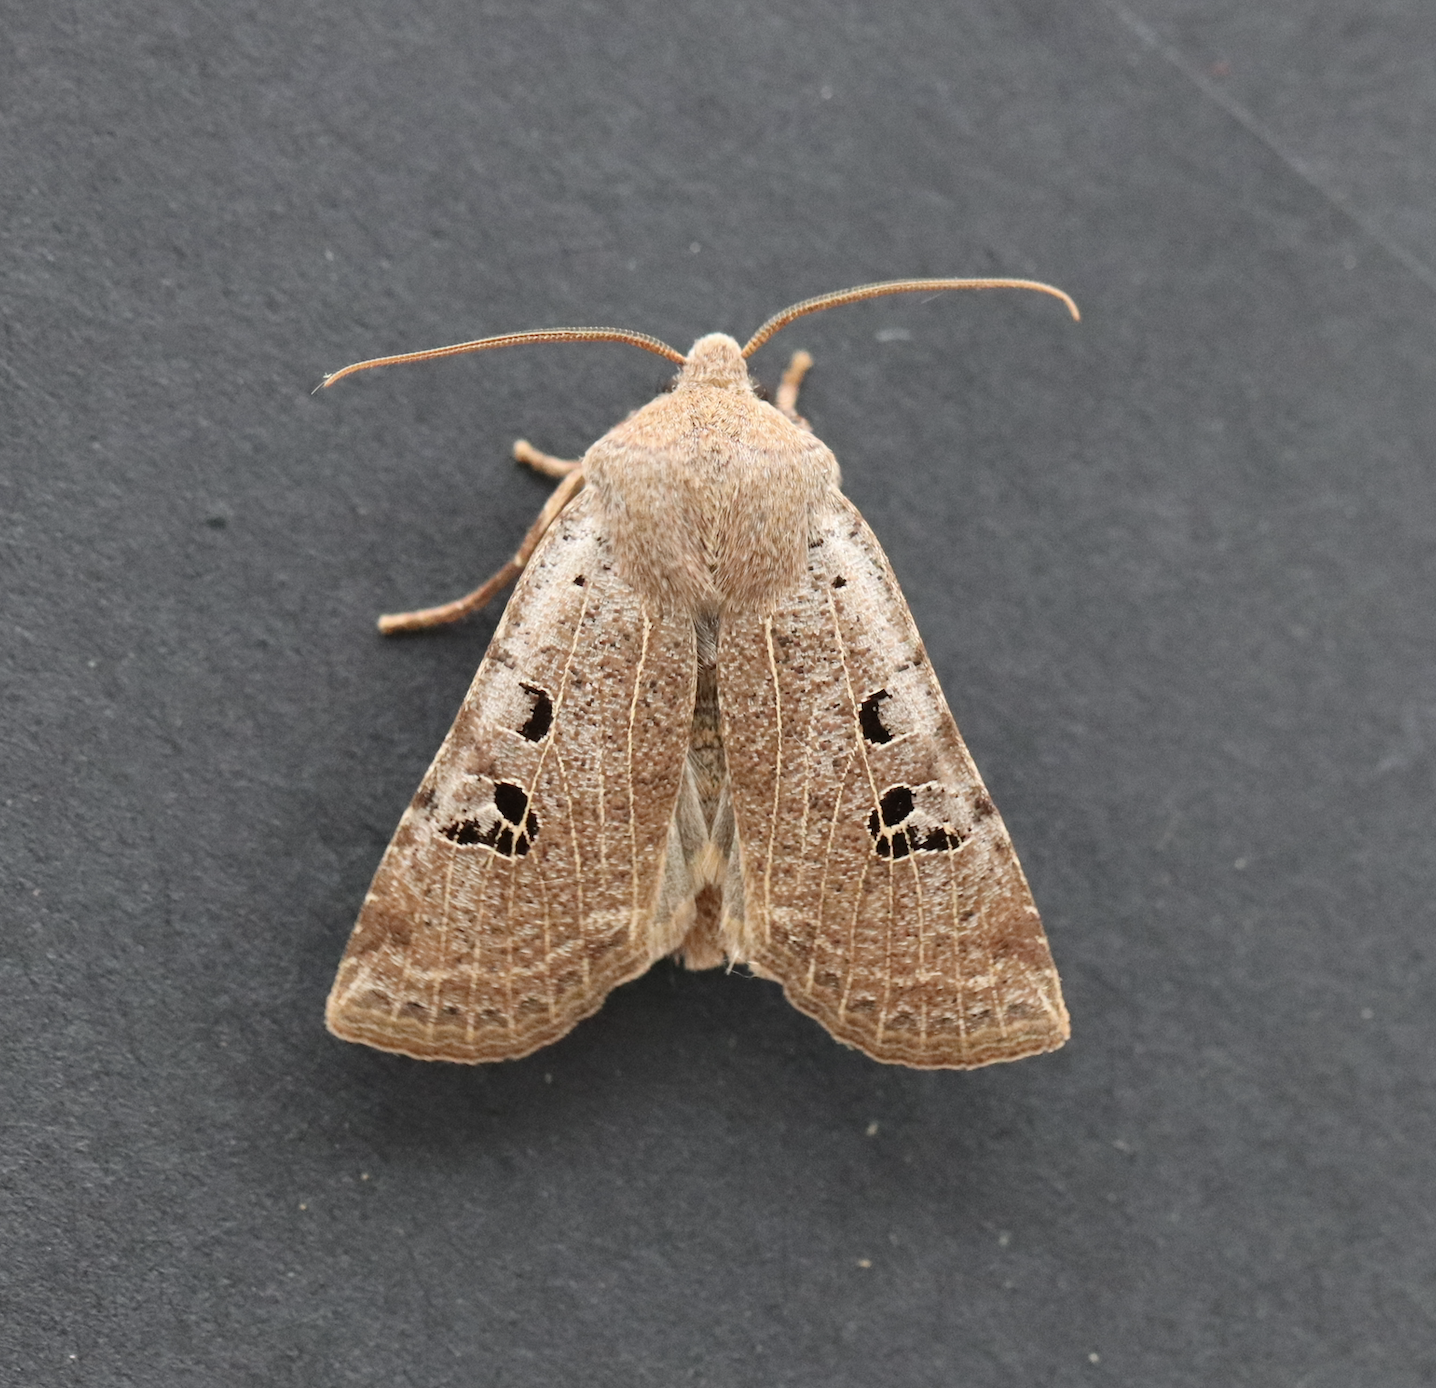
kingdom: Animalia
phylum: Arthropoda
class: Insecta
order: Lepidoptera
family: Noctuidae
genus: Conistra
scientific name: Conistra rubiginosa
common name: Black-spotted chestnut
